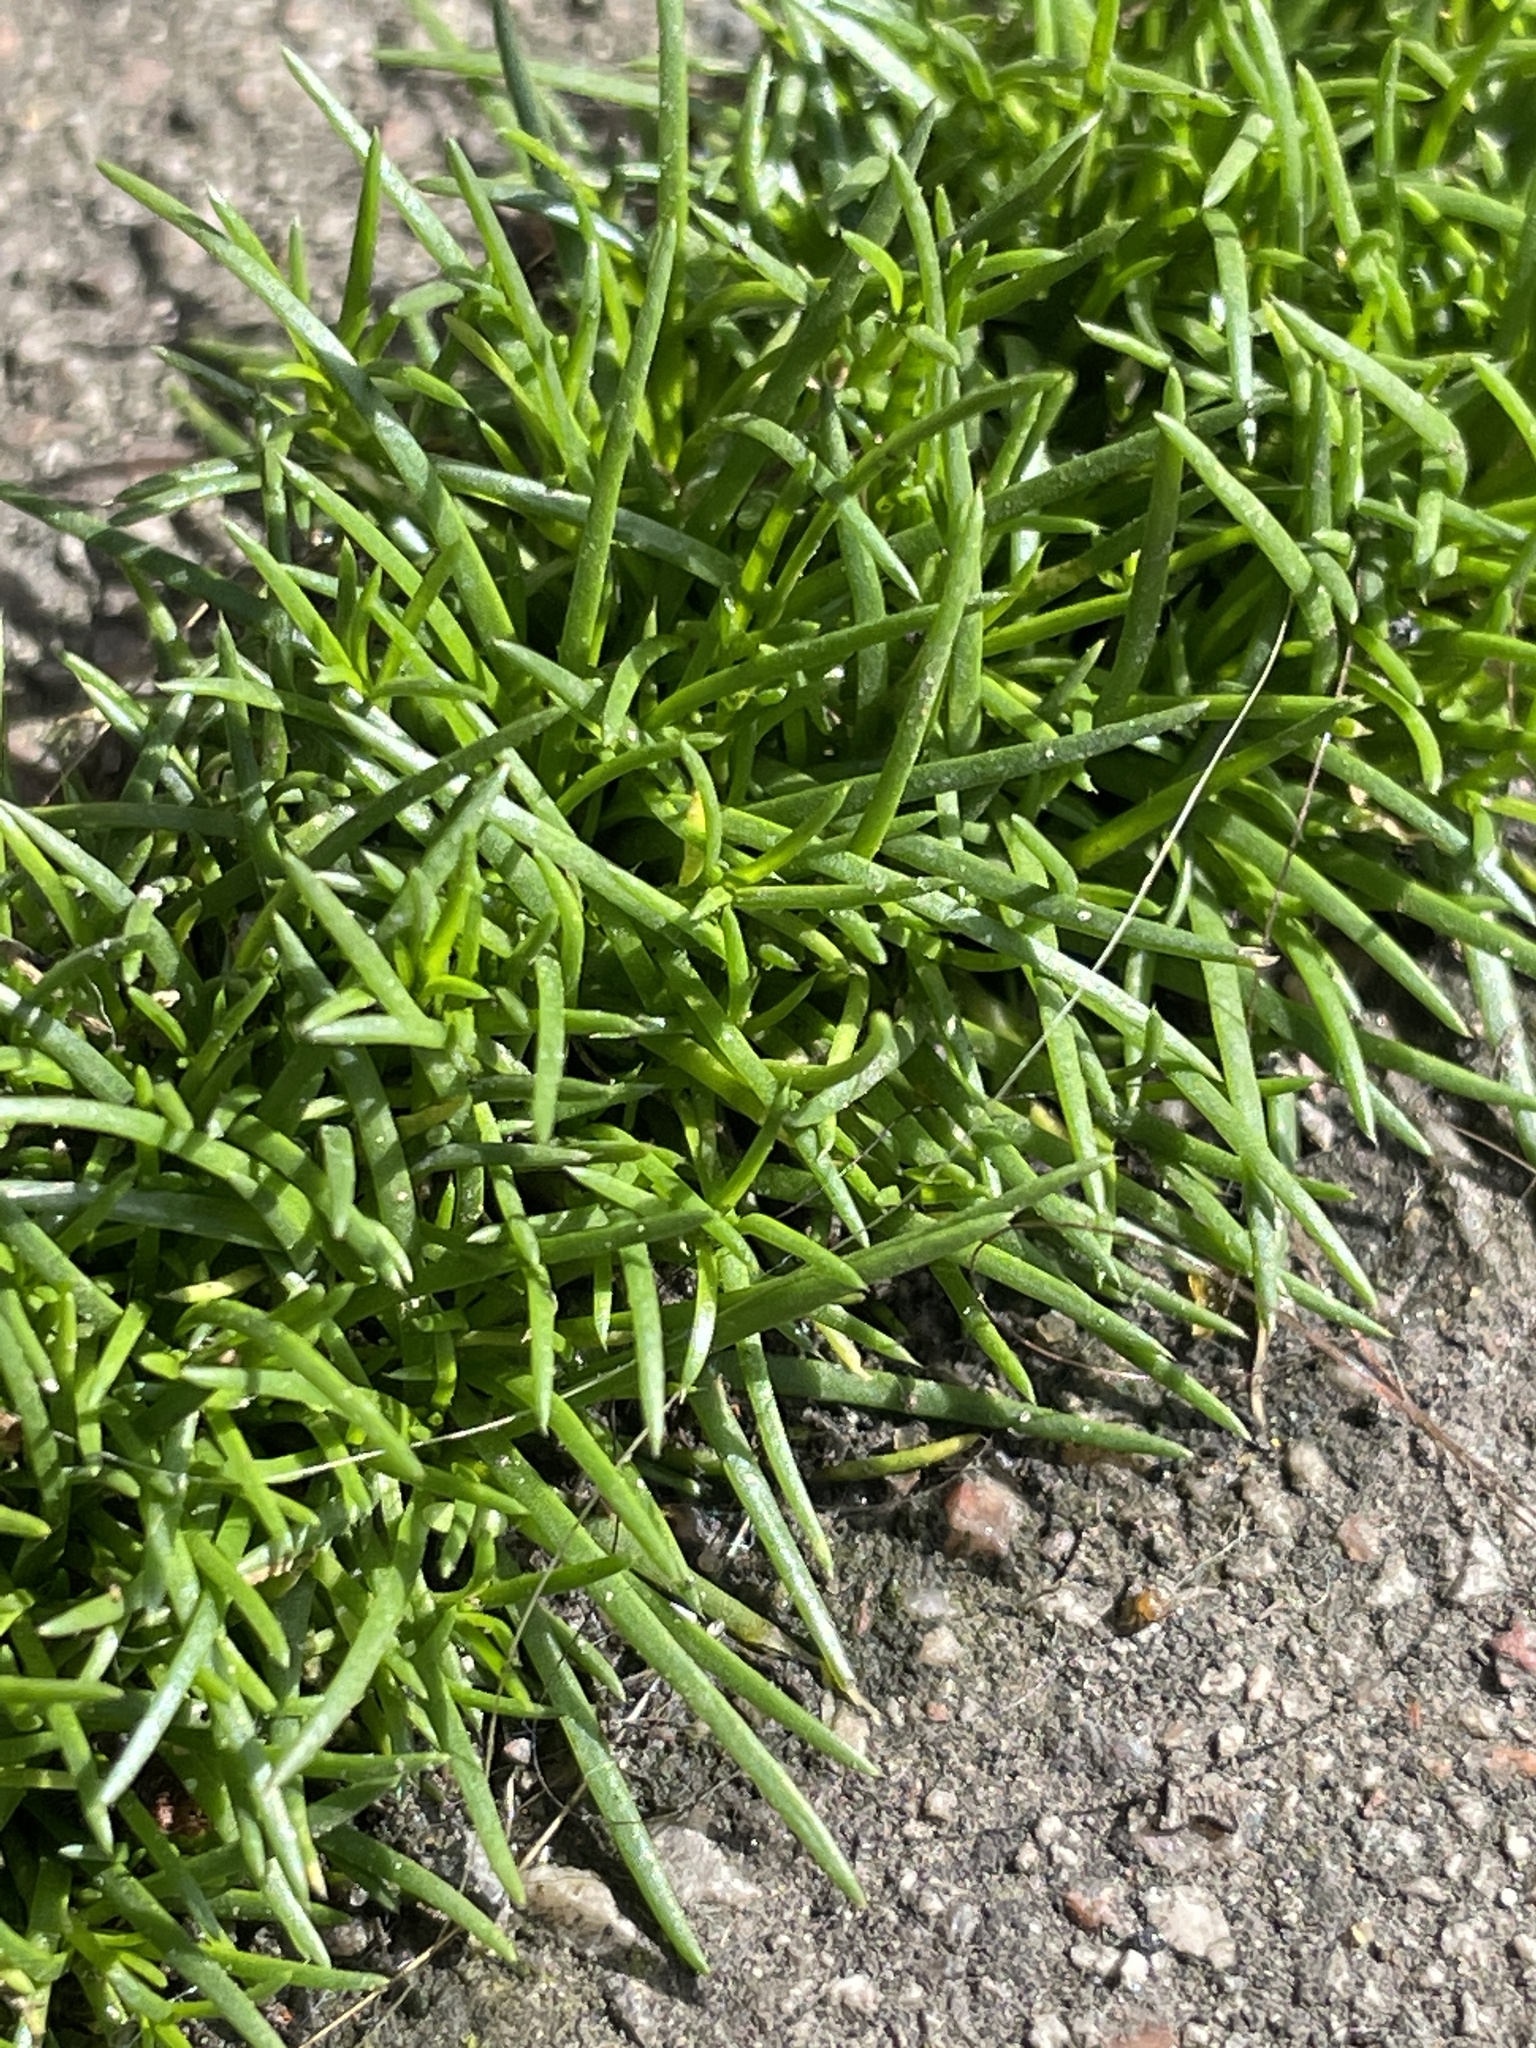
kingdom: Plantae
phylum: Tracheophyta
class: Magnoliopsida
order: Caryophyllales
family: Caryophyllaceae
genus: Sagina
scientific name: Sagina procumbens
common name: Procumbent pearlwort
